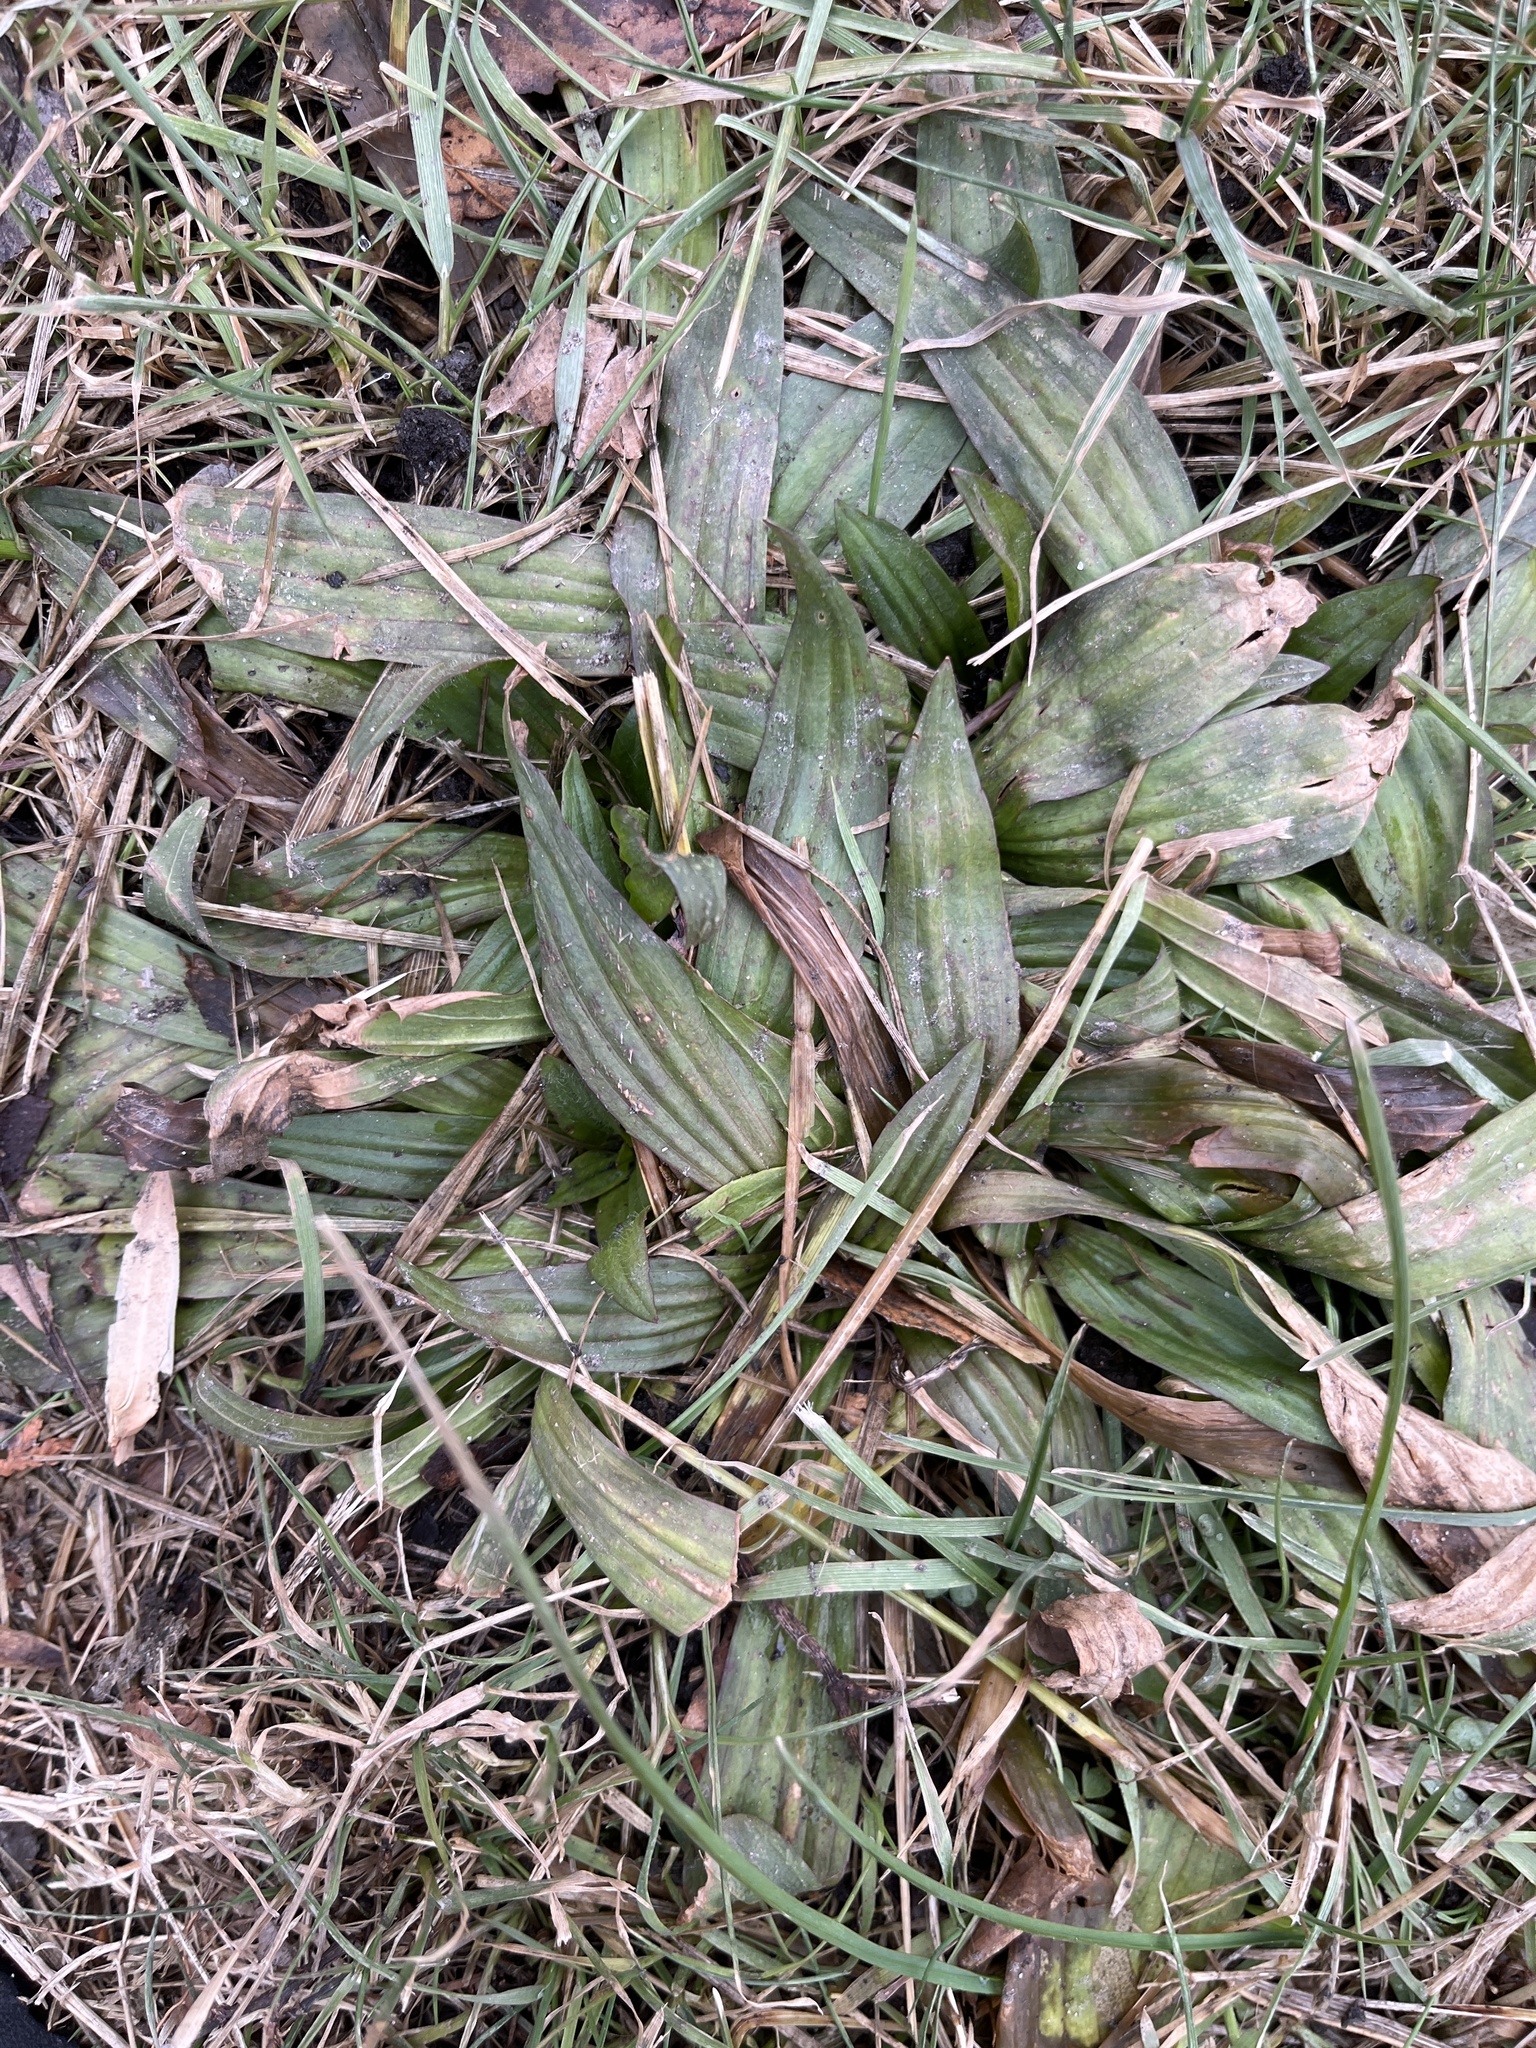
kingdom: Plantae
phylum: Tracheophyta
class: Magnoliopsida
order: Lamiales
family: Plantaginaceae
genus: Plantago
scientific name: Plantago lanceolata
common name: Ribwort plantain
